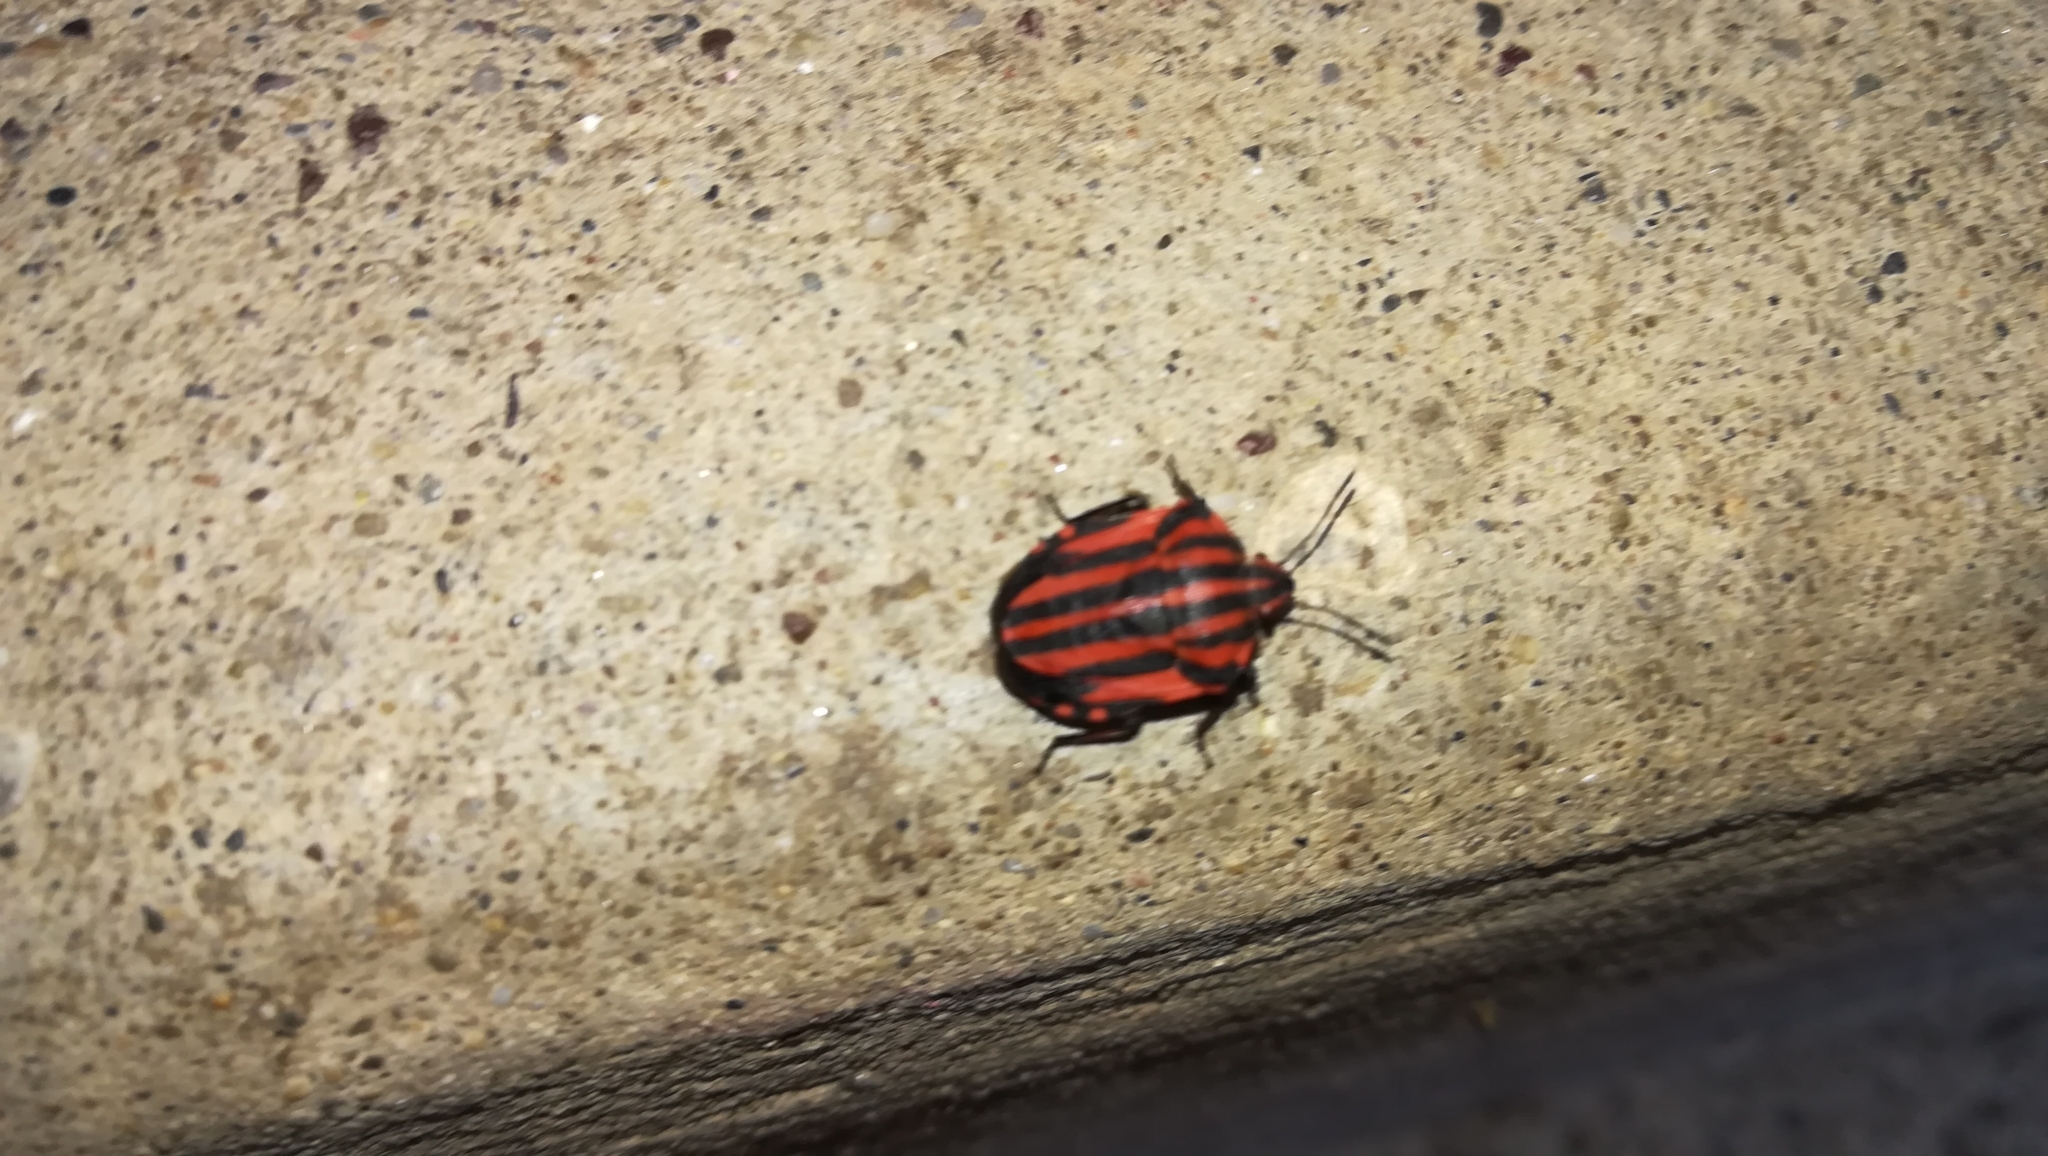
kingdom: Animalia
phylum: Arthropoda
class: Insecta
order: Hemiptera
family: Pentatomidae
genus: Graphosoma
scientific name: Graphosoma italicum
